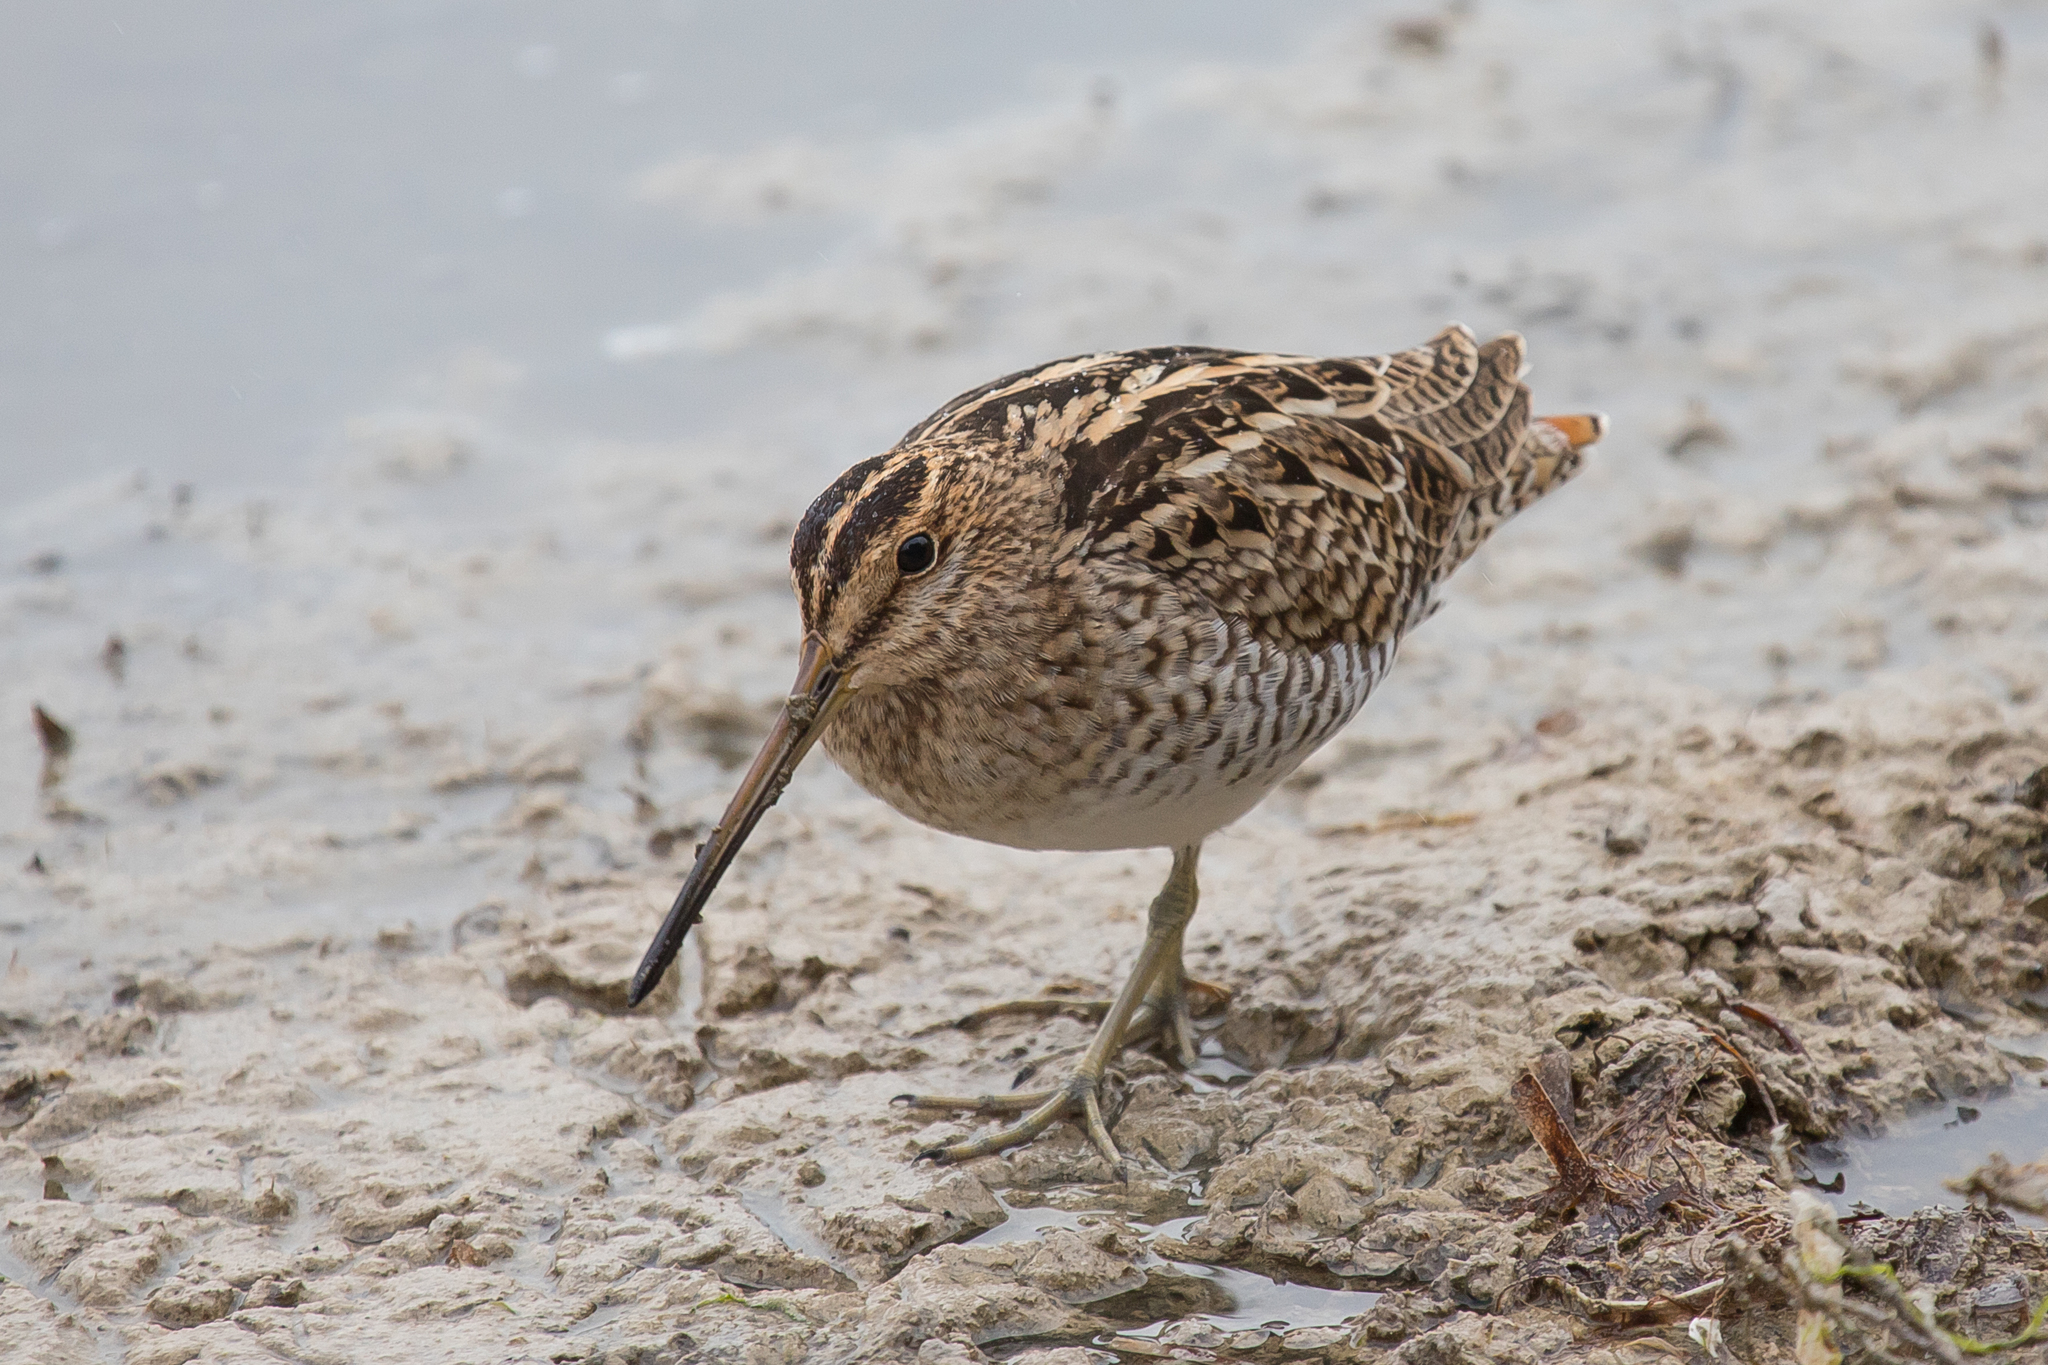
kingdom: Animalia
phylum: Chordata
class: Aves
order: Charadriiformes
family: Scolopacidae
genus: Gallinago
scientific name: Gallinago hardwickii
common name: Latham's snipe
